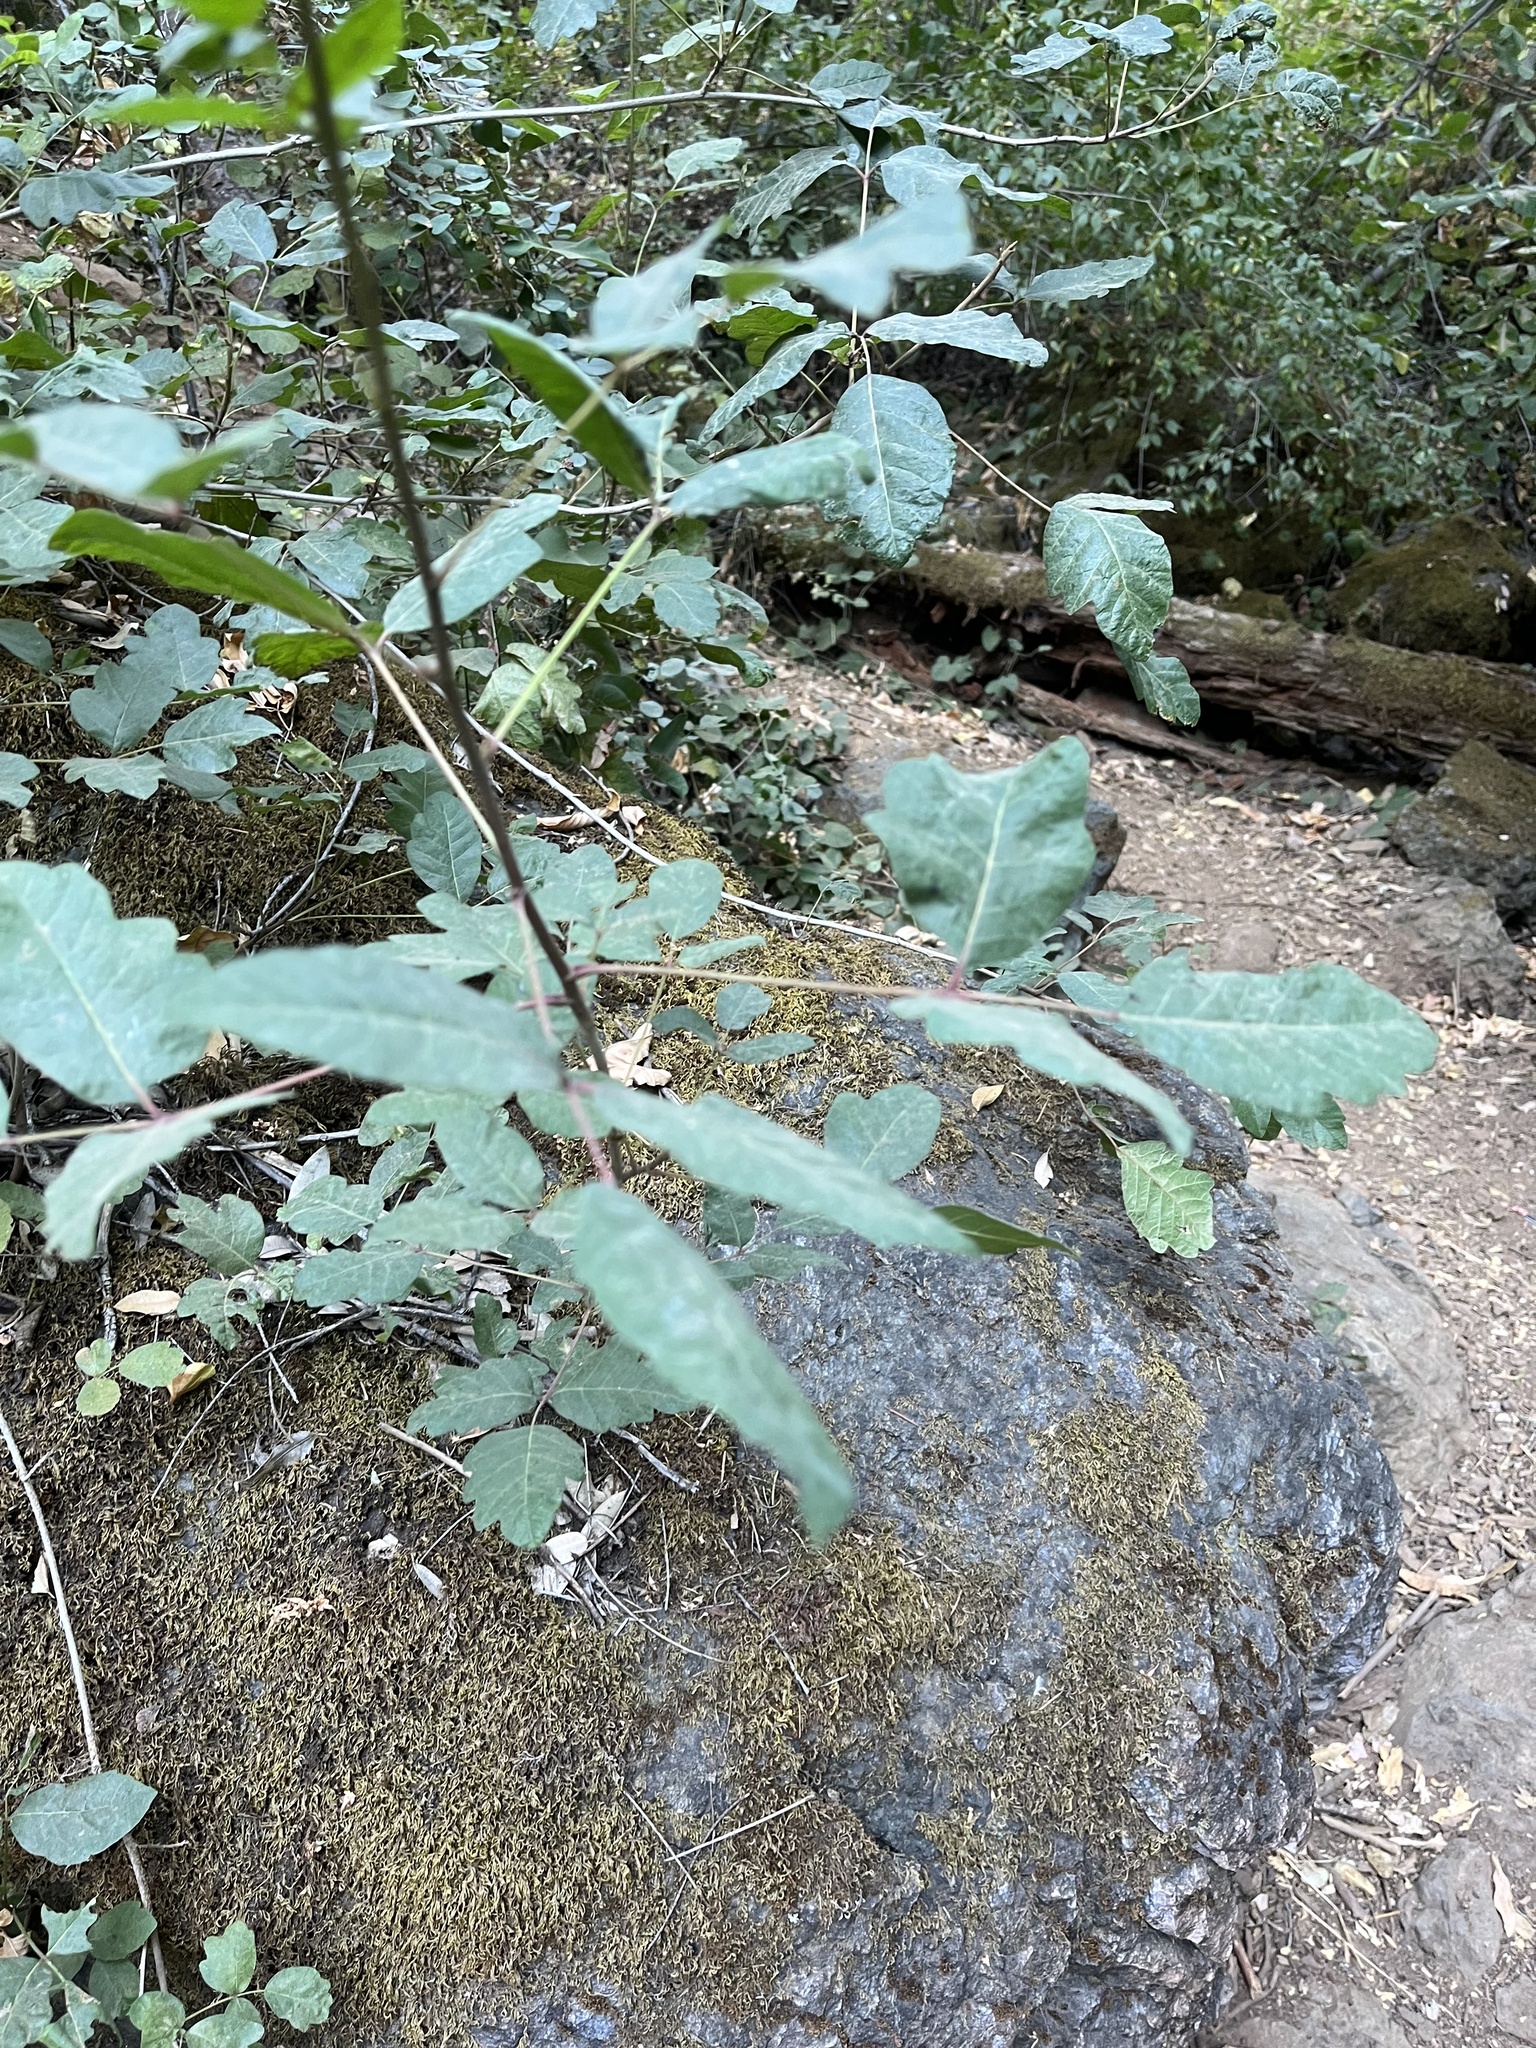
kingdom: Plantae
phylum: Tracheophyta
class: Magnoliopsida
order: Sapindales
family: Anacardiaceae
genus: Toxicodendron
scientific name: Toxicodendron diversilobum
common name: Pacific poison-oak
